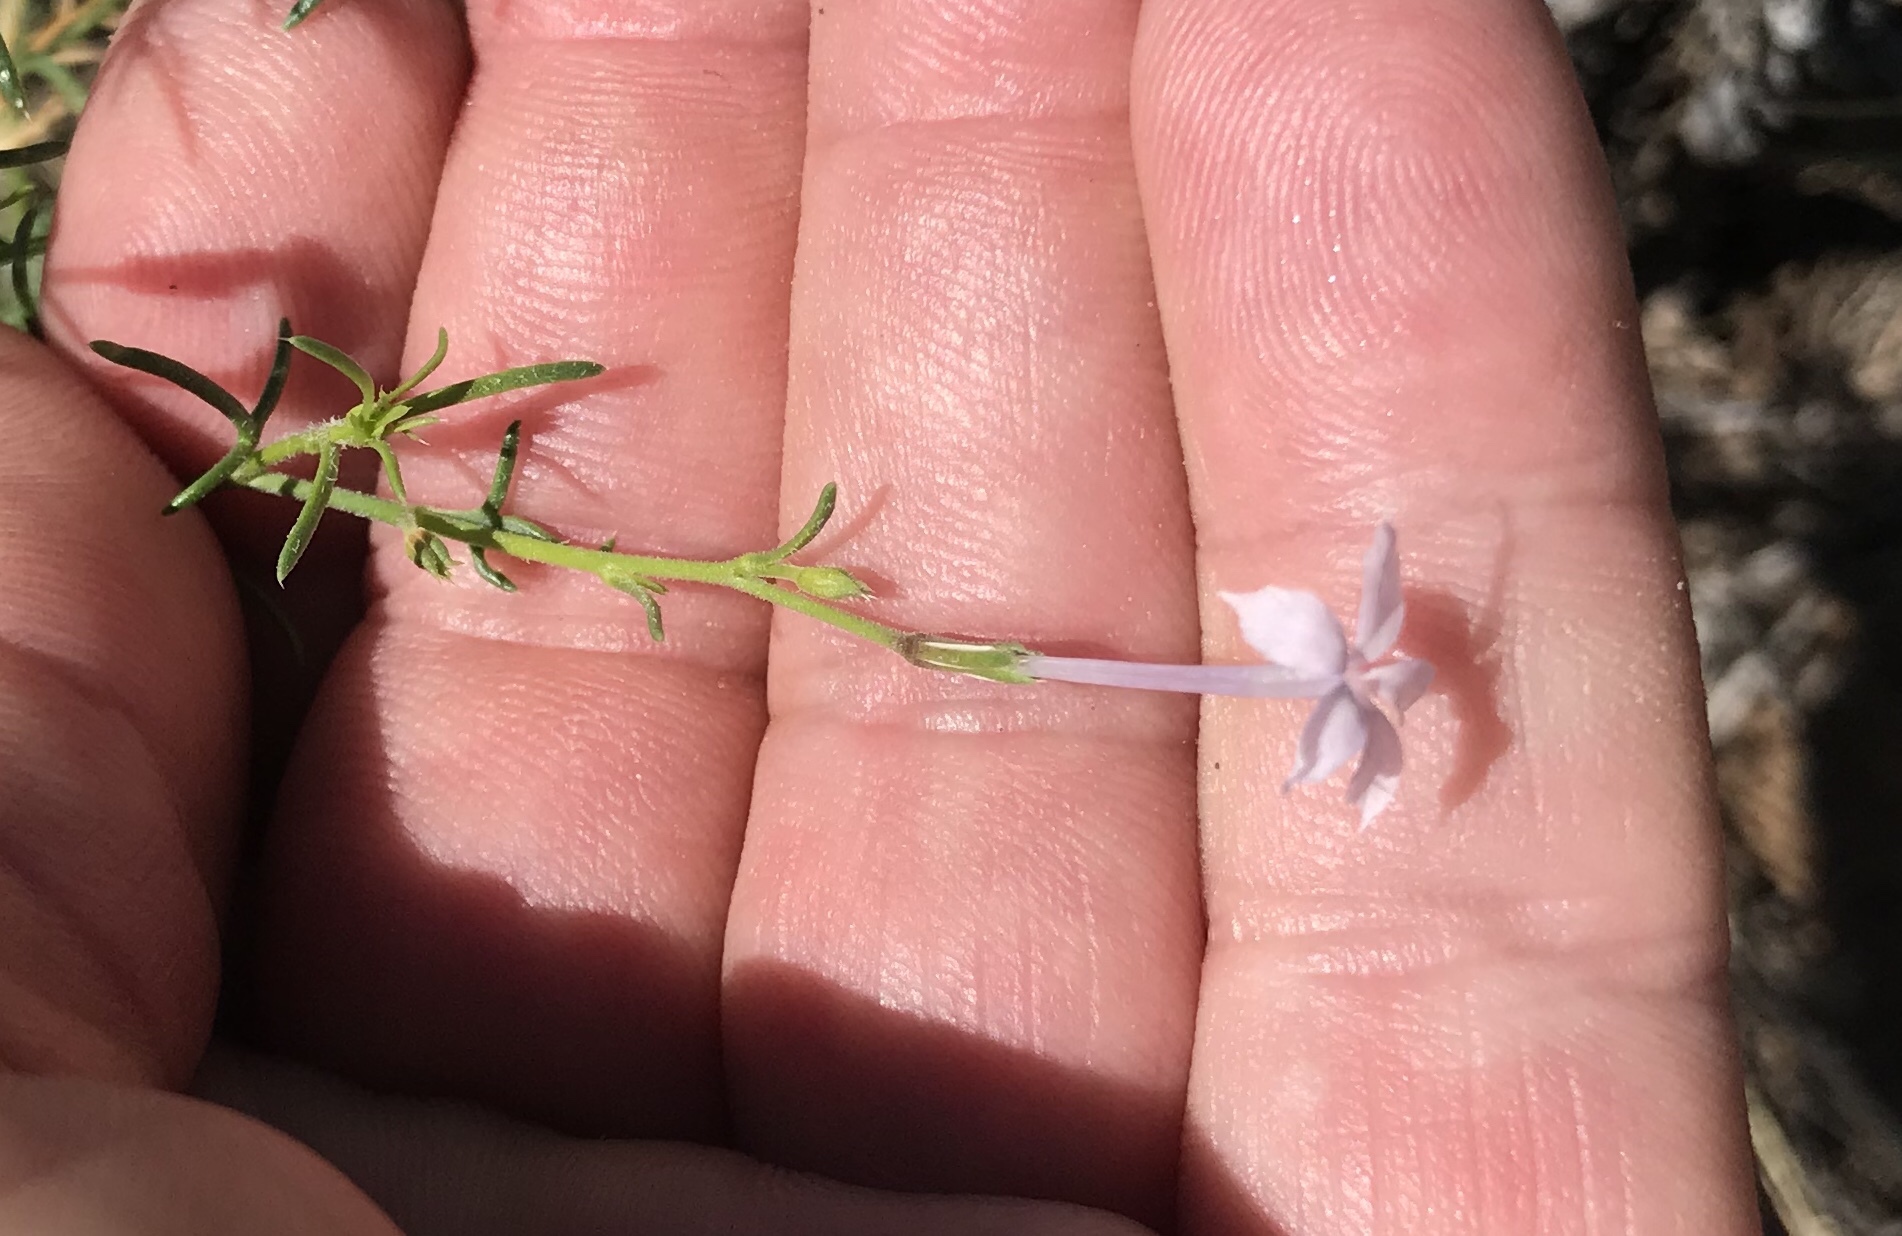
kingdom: Plantae
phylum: Tracheophyta
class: Magnoliopsida
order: Ericales
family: Polemoniaceae
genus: Ipomopsis
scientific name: Ipomopsis laxiflora
